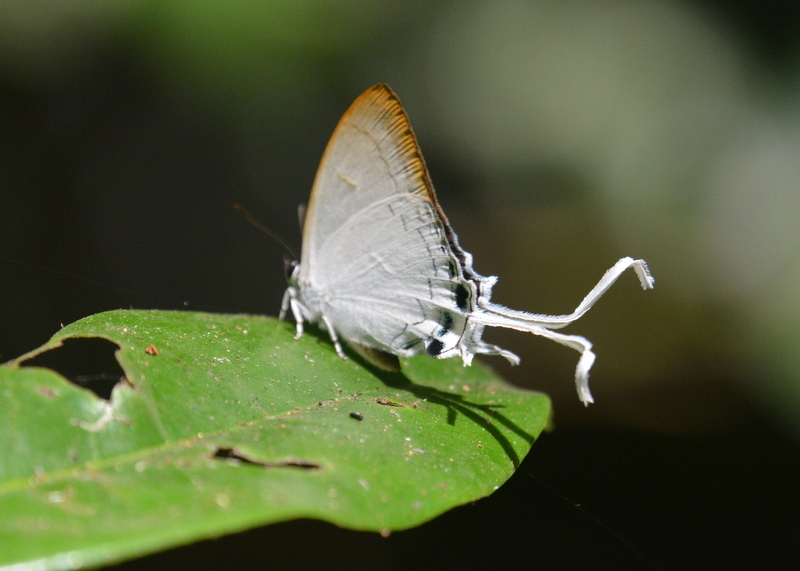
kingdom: Animalia
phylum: Arthropoda
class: Insecta
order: Lepidoptera
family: Lycaenidae
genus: Cheritra
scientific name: Cheritra freja
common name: Common imperial
